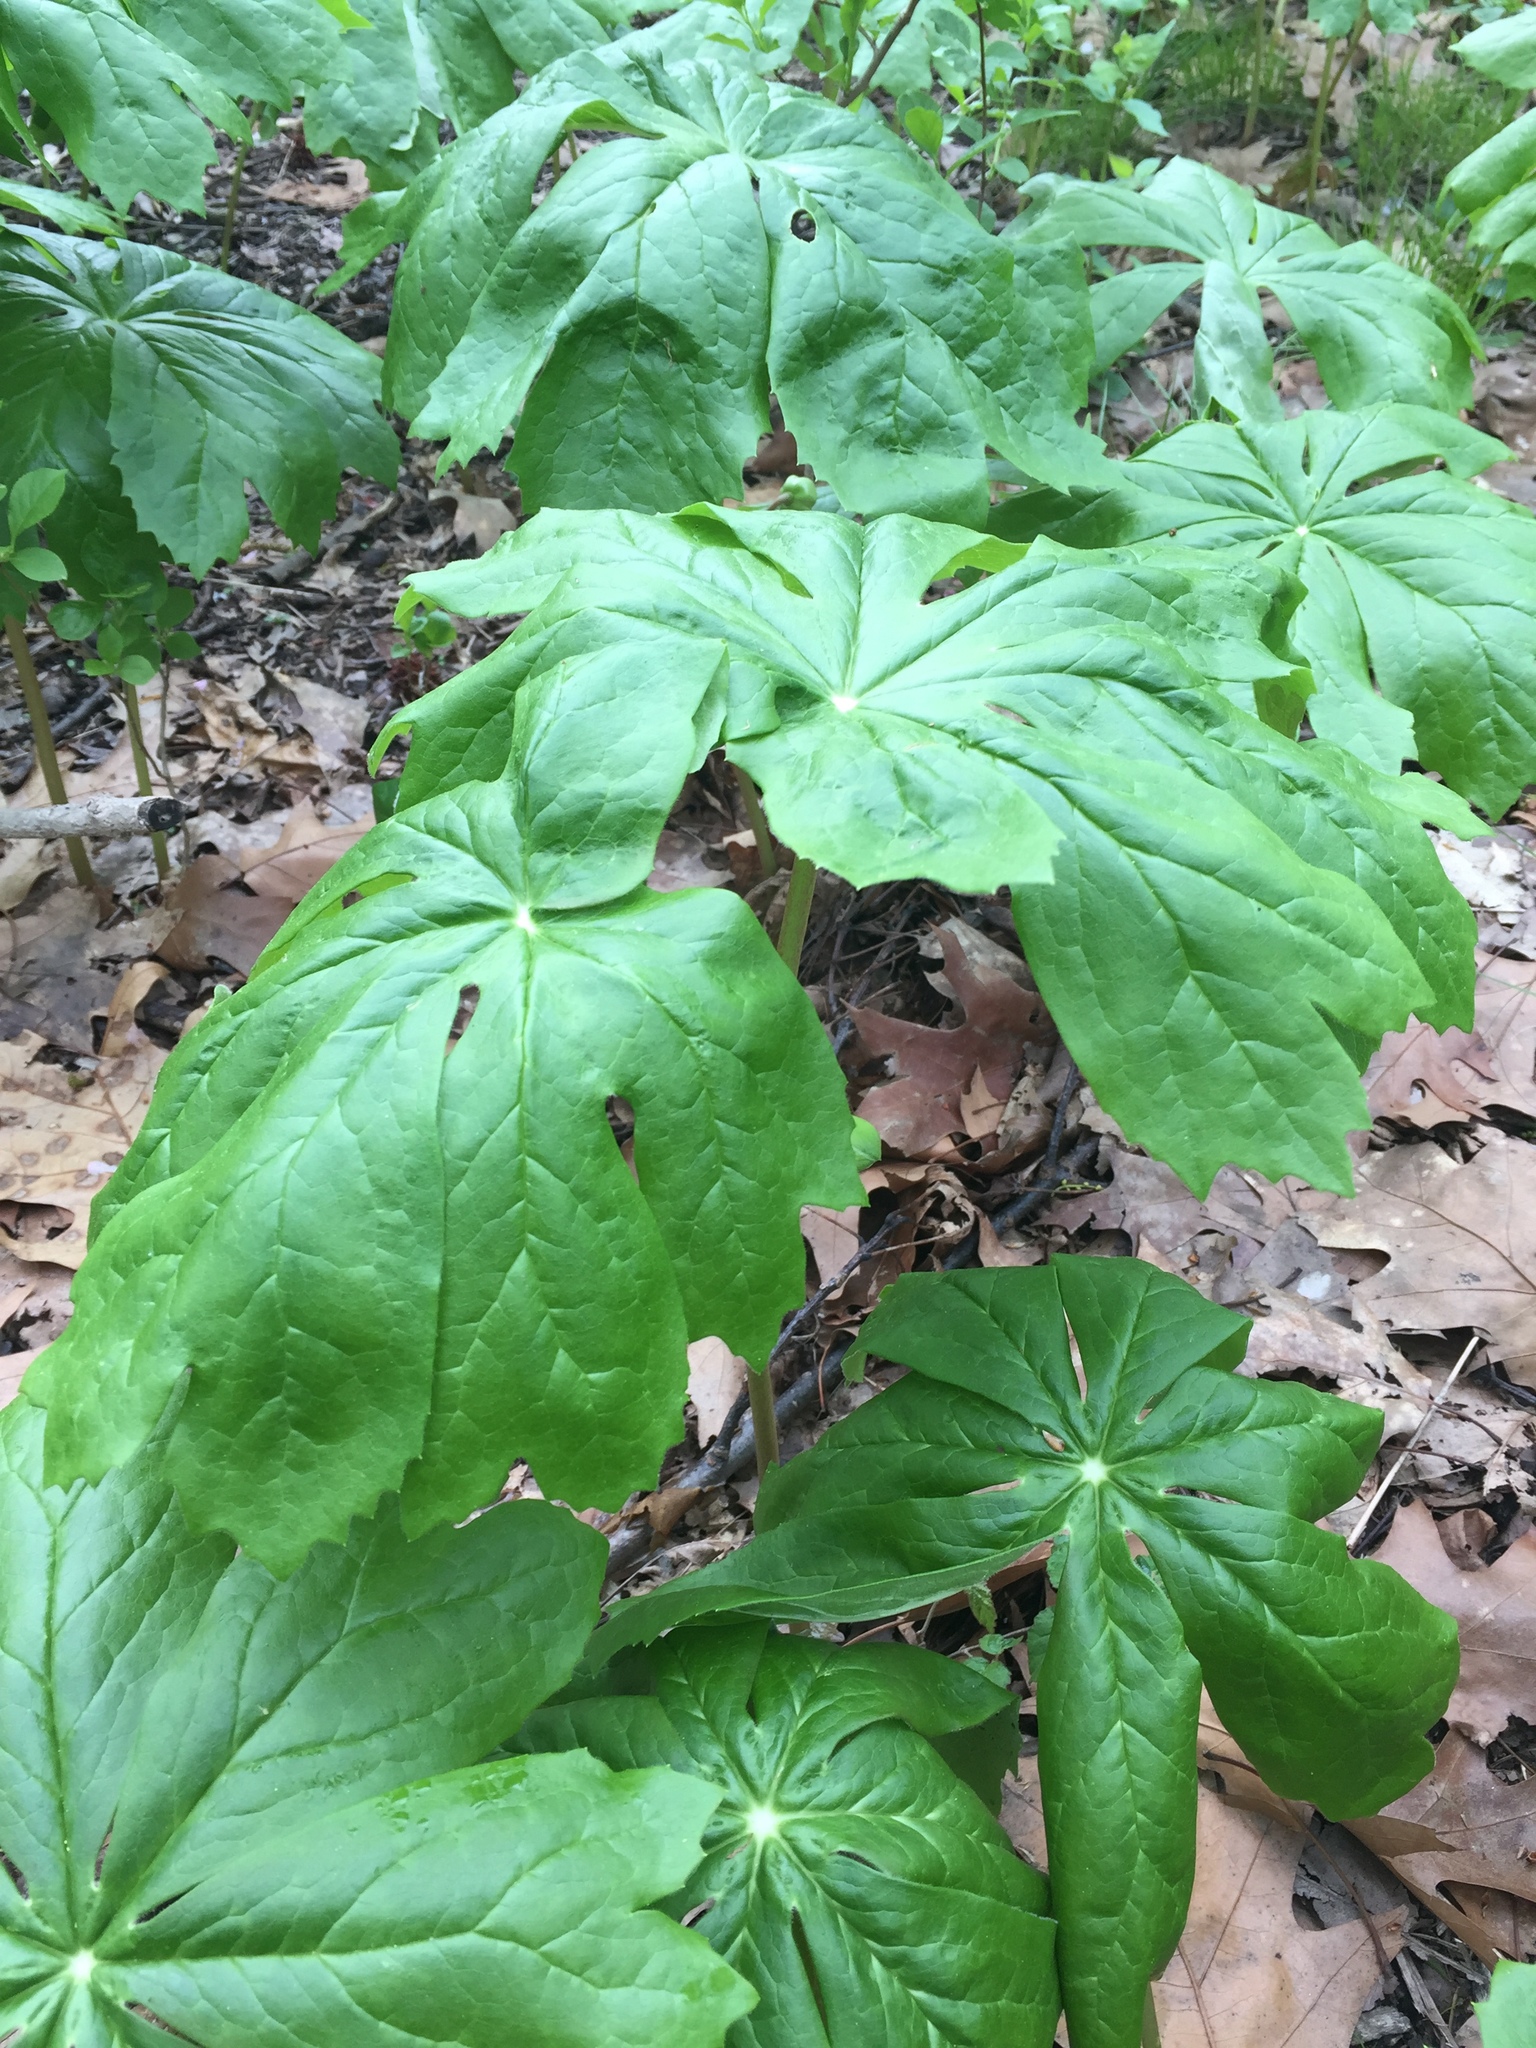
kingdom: Plantae
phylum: Tracheophyta
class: Magnoliopsida
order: Ranunculales
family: Berberidaceae
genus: Podophyllum
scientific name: Podophyllum peltatum
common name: Wild mandrake
